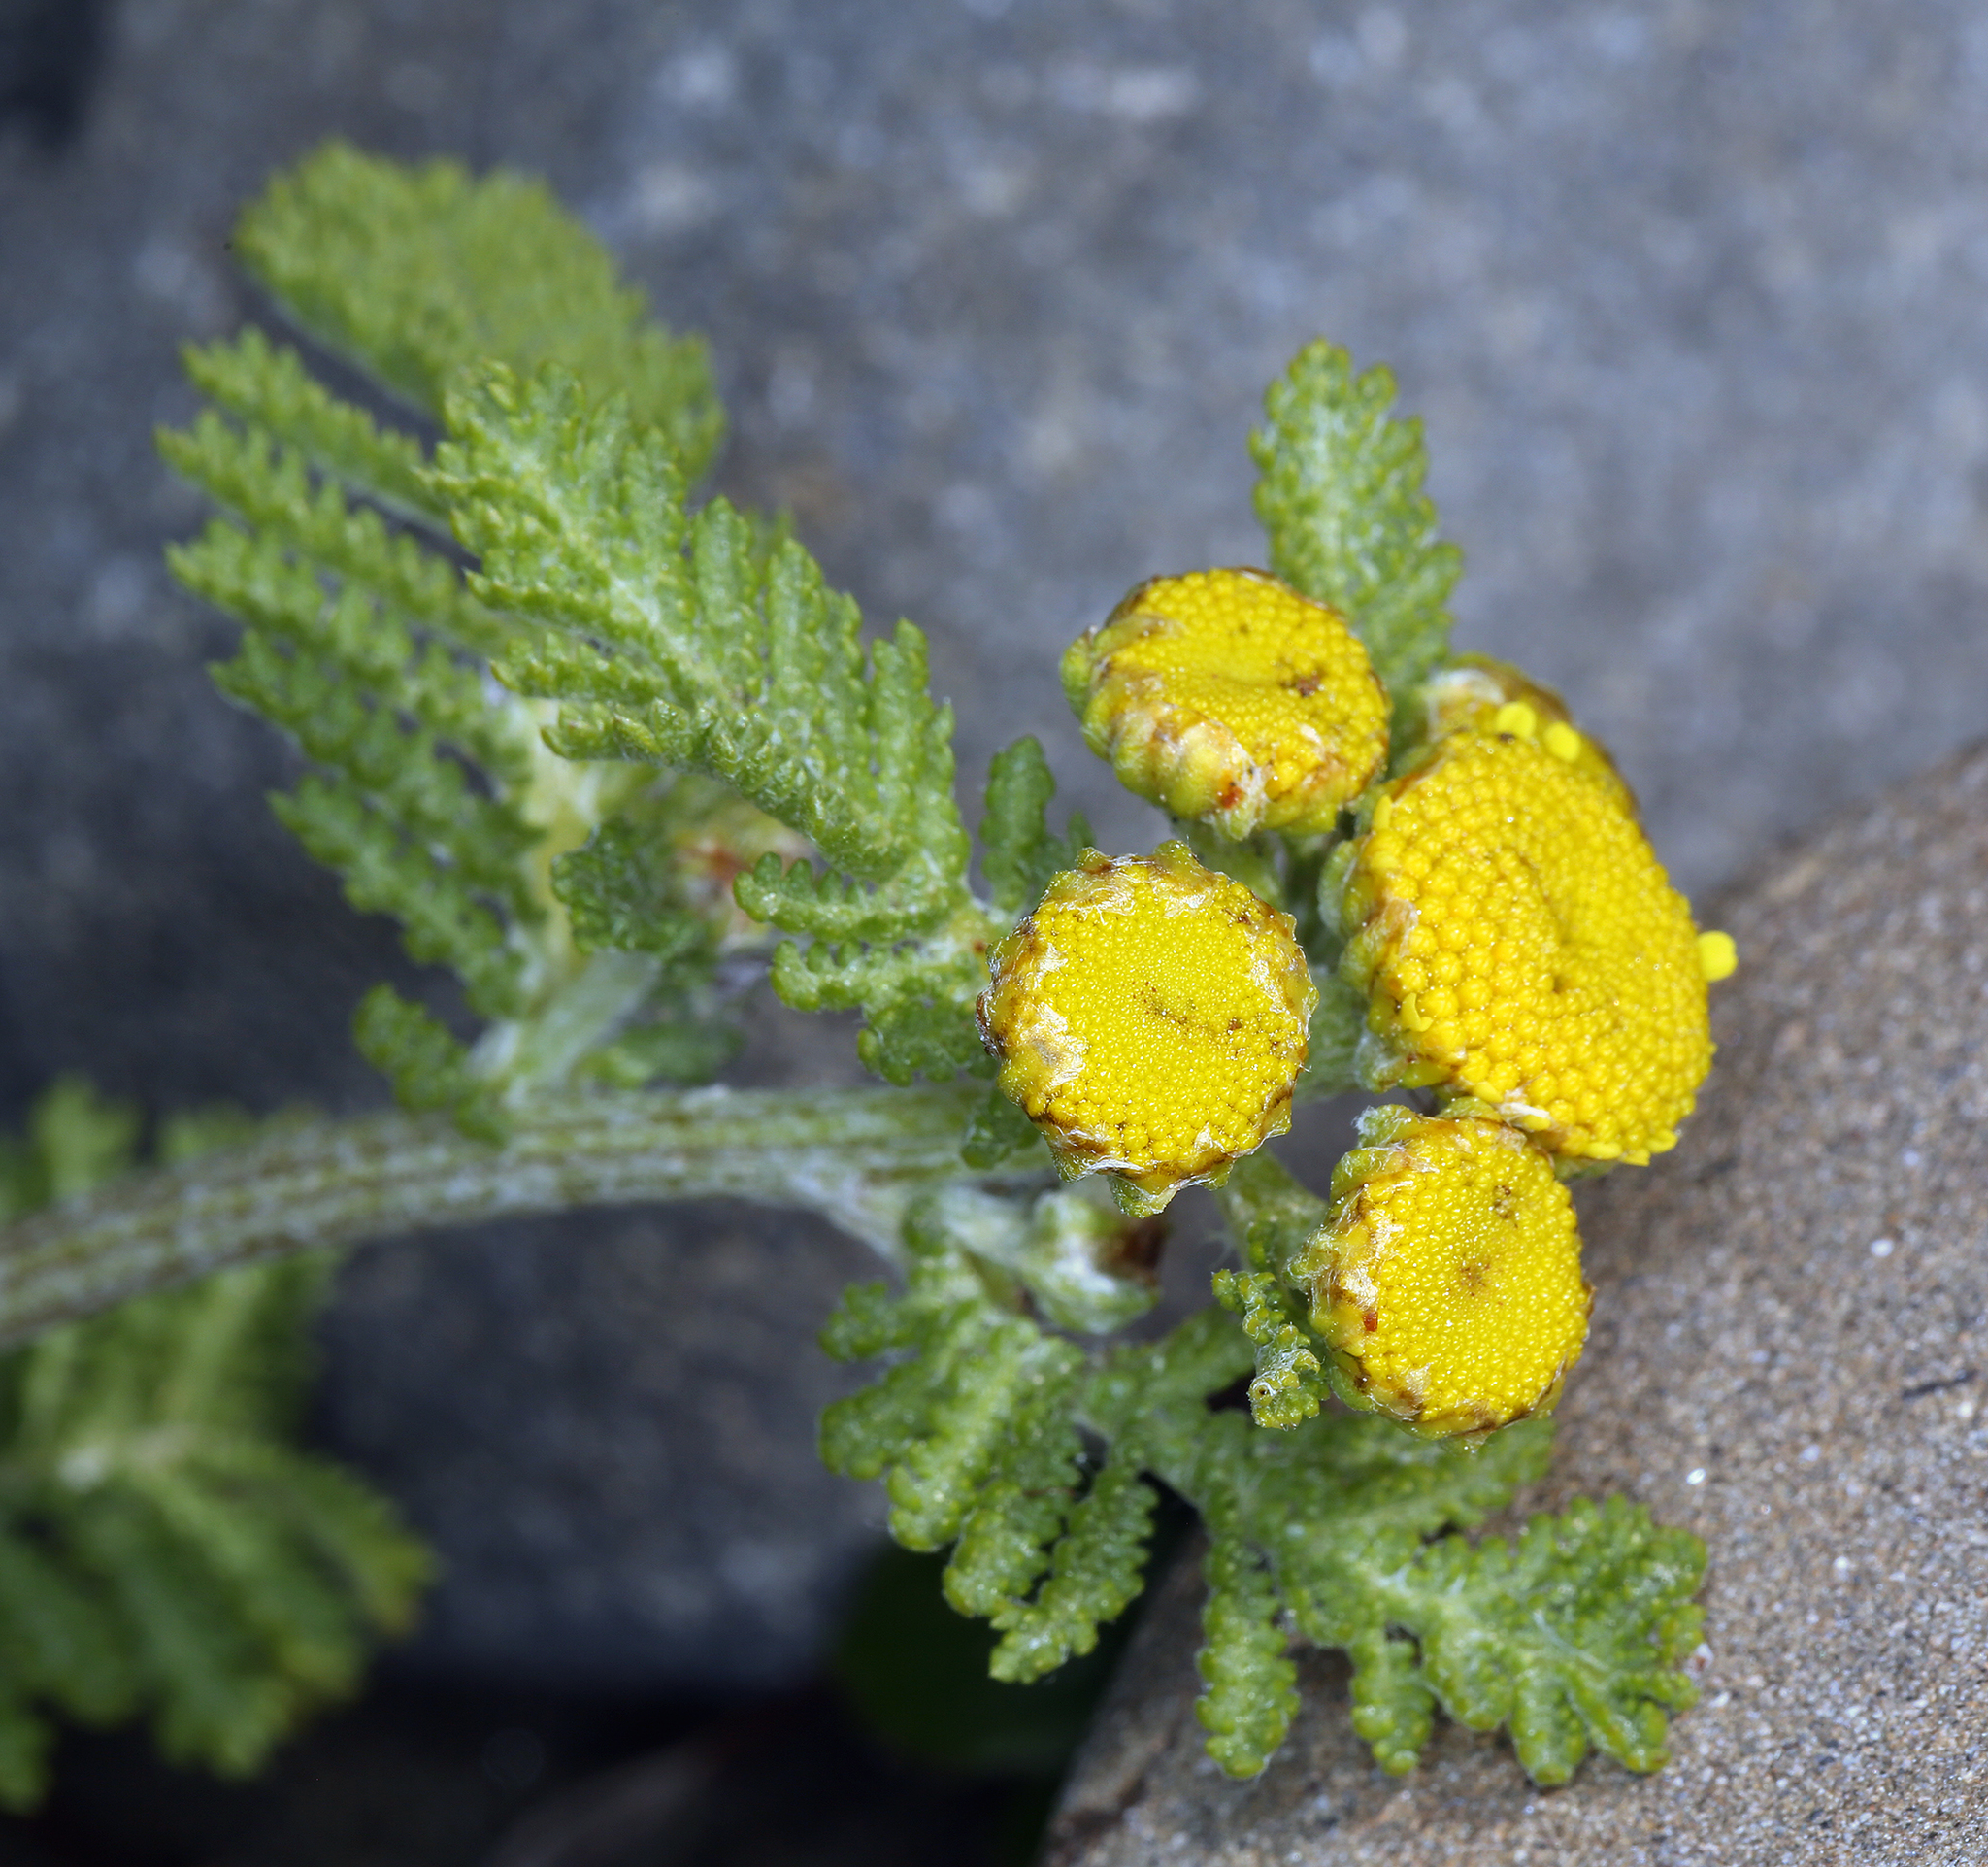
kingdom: Plantae
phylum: Tracheophyta
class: Magnoliopsida
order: Asterales
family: Asteraceae
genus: Tanacetum
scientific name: Tanacetum bipinnatum
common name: Dwarf tansy
